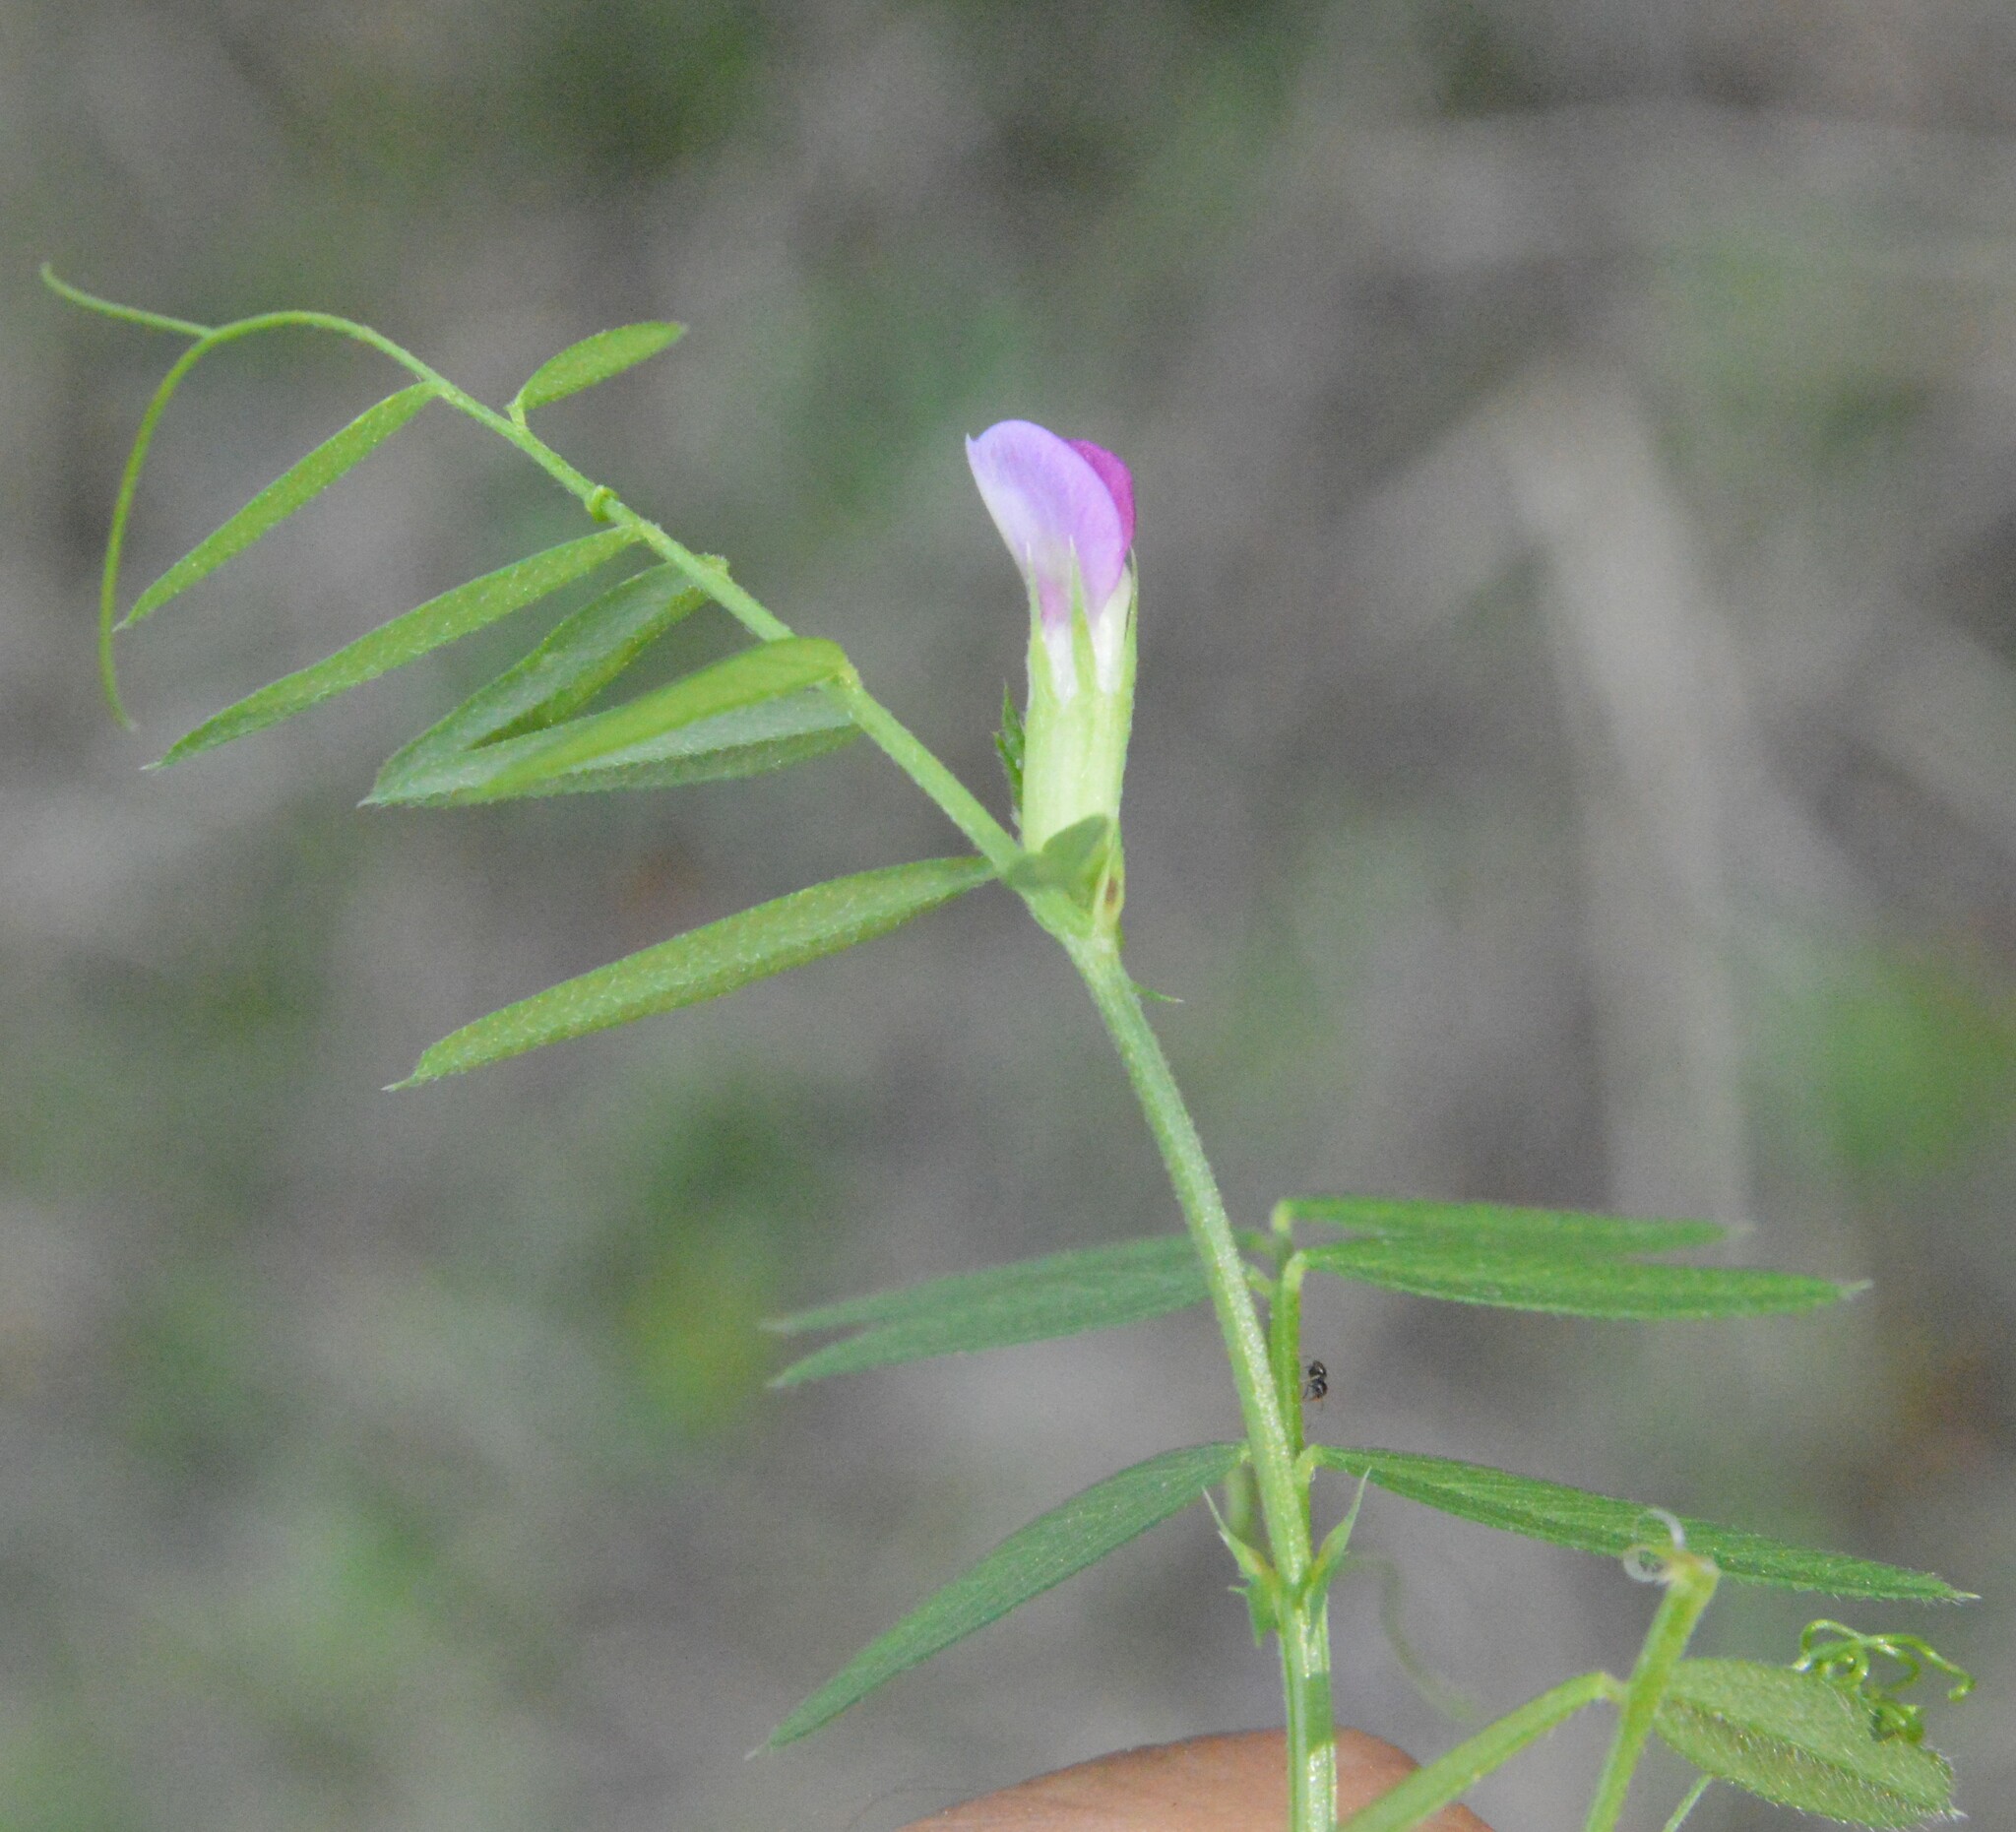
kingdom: Plantae
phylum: Tracheophyta
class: Magnoliopsida
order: Fabales
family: Fabaceae
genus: Vicia
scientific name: Vicia sativa
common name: Garden vetch
